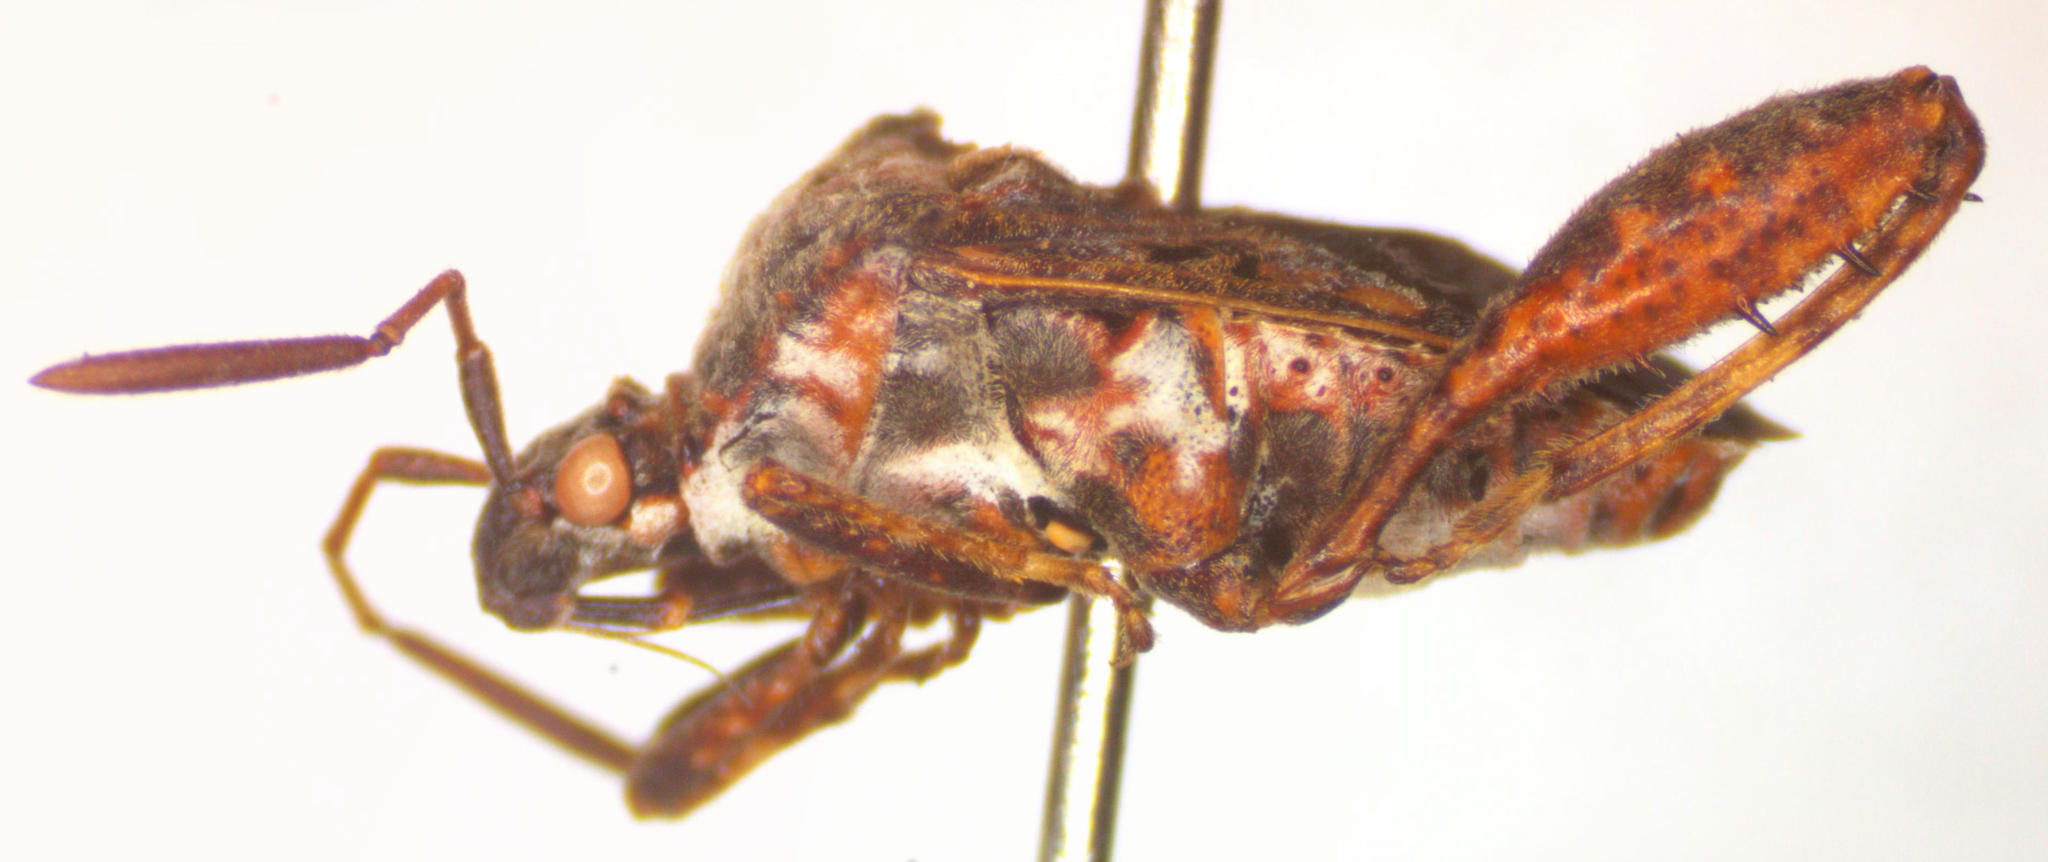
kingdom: Animalia
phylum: Arthropoda
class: Insecta
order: Hemiptera
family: Coreidae
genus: Merocoris
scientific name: Merocoris distinctus
